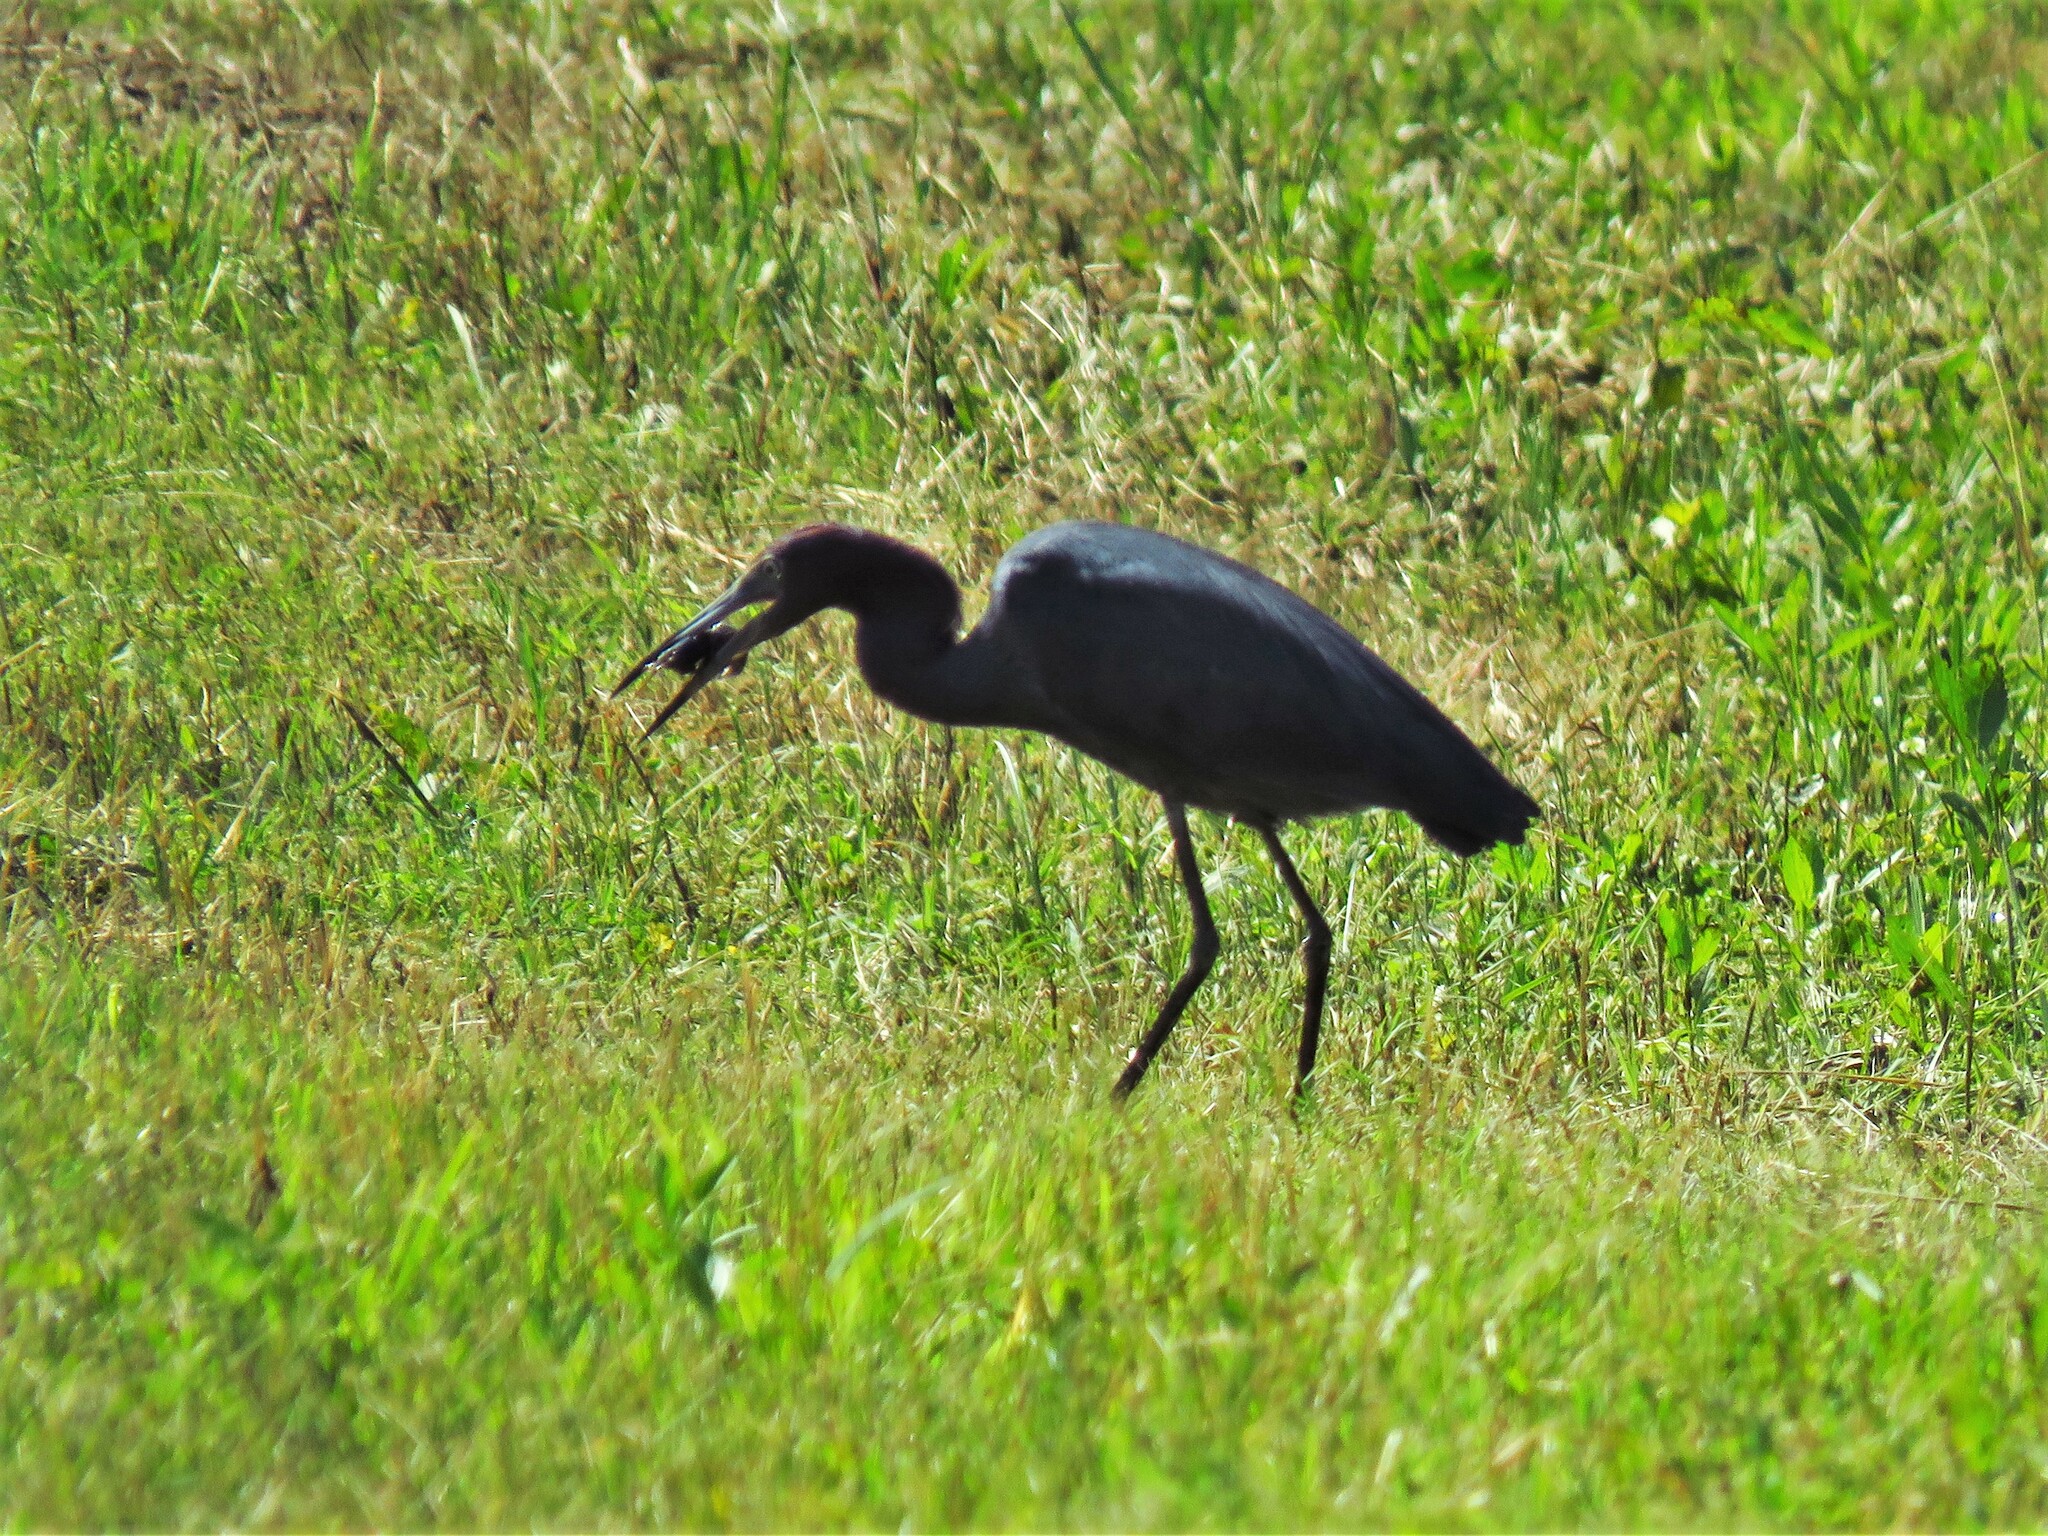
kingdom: Animalia
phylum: Chordata
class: Aves
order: Pelecaniformes
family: Ardeidae
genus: Egretta
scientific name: Egretta caerulea
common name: Little blue heron
